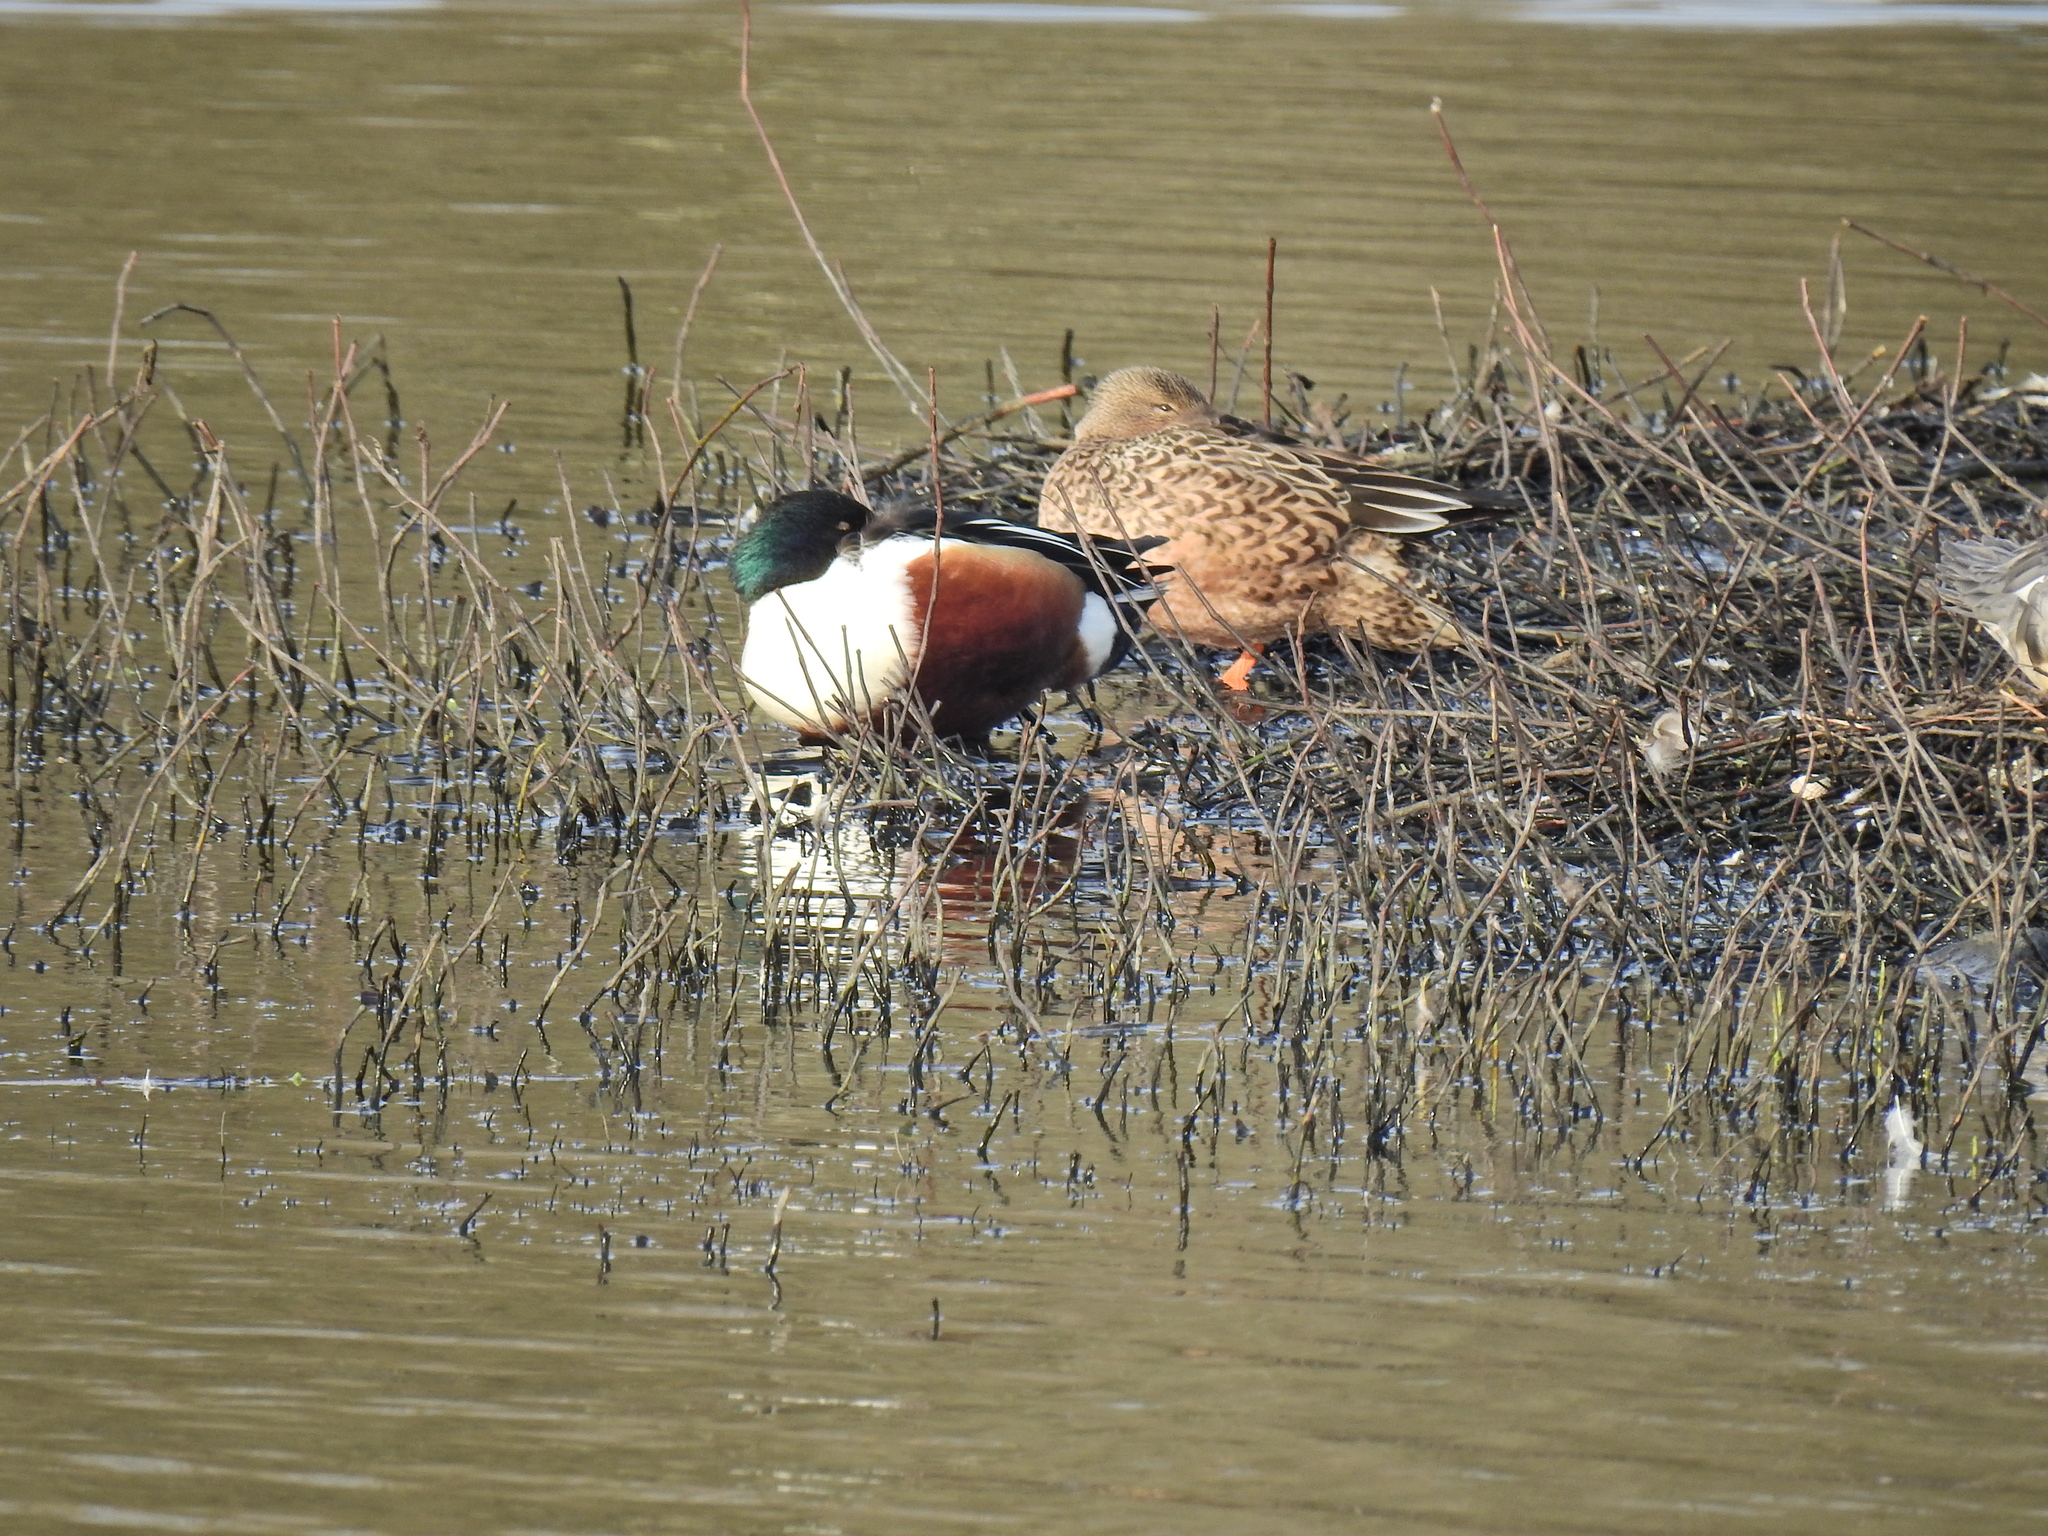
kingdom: Animalia
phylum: Chordata
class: Aves
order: Anseriformes
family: Anatidae
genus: Spatula
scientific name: Spatula clypeata
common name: Northern shoveler
